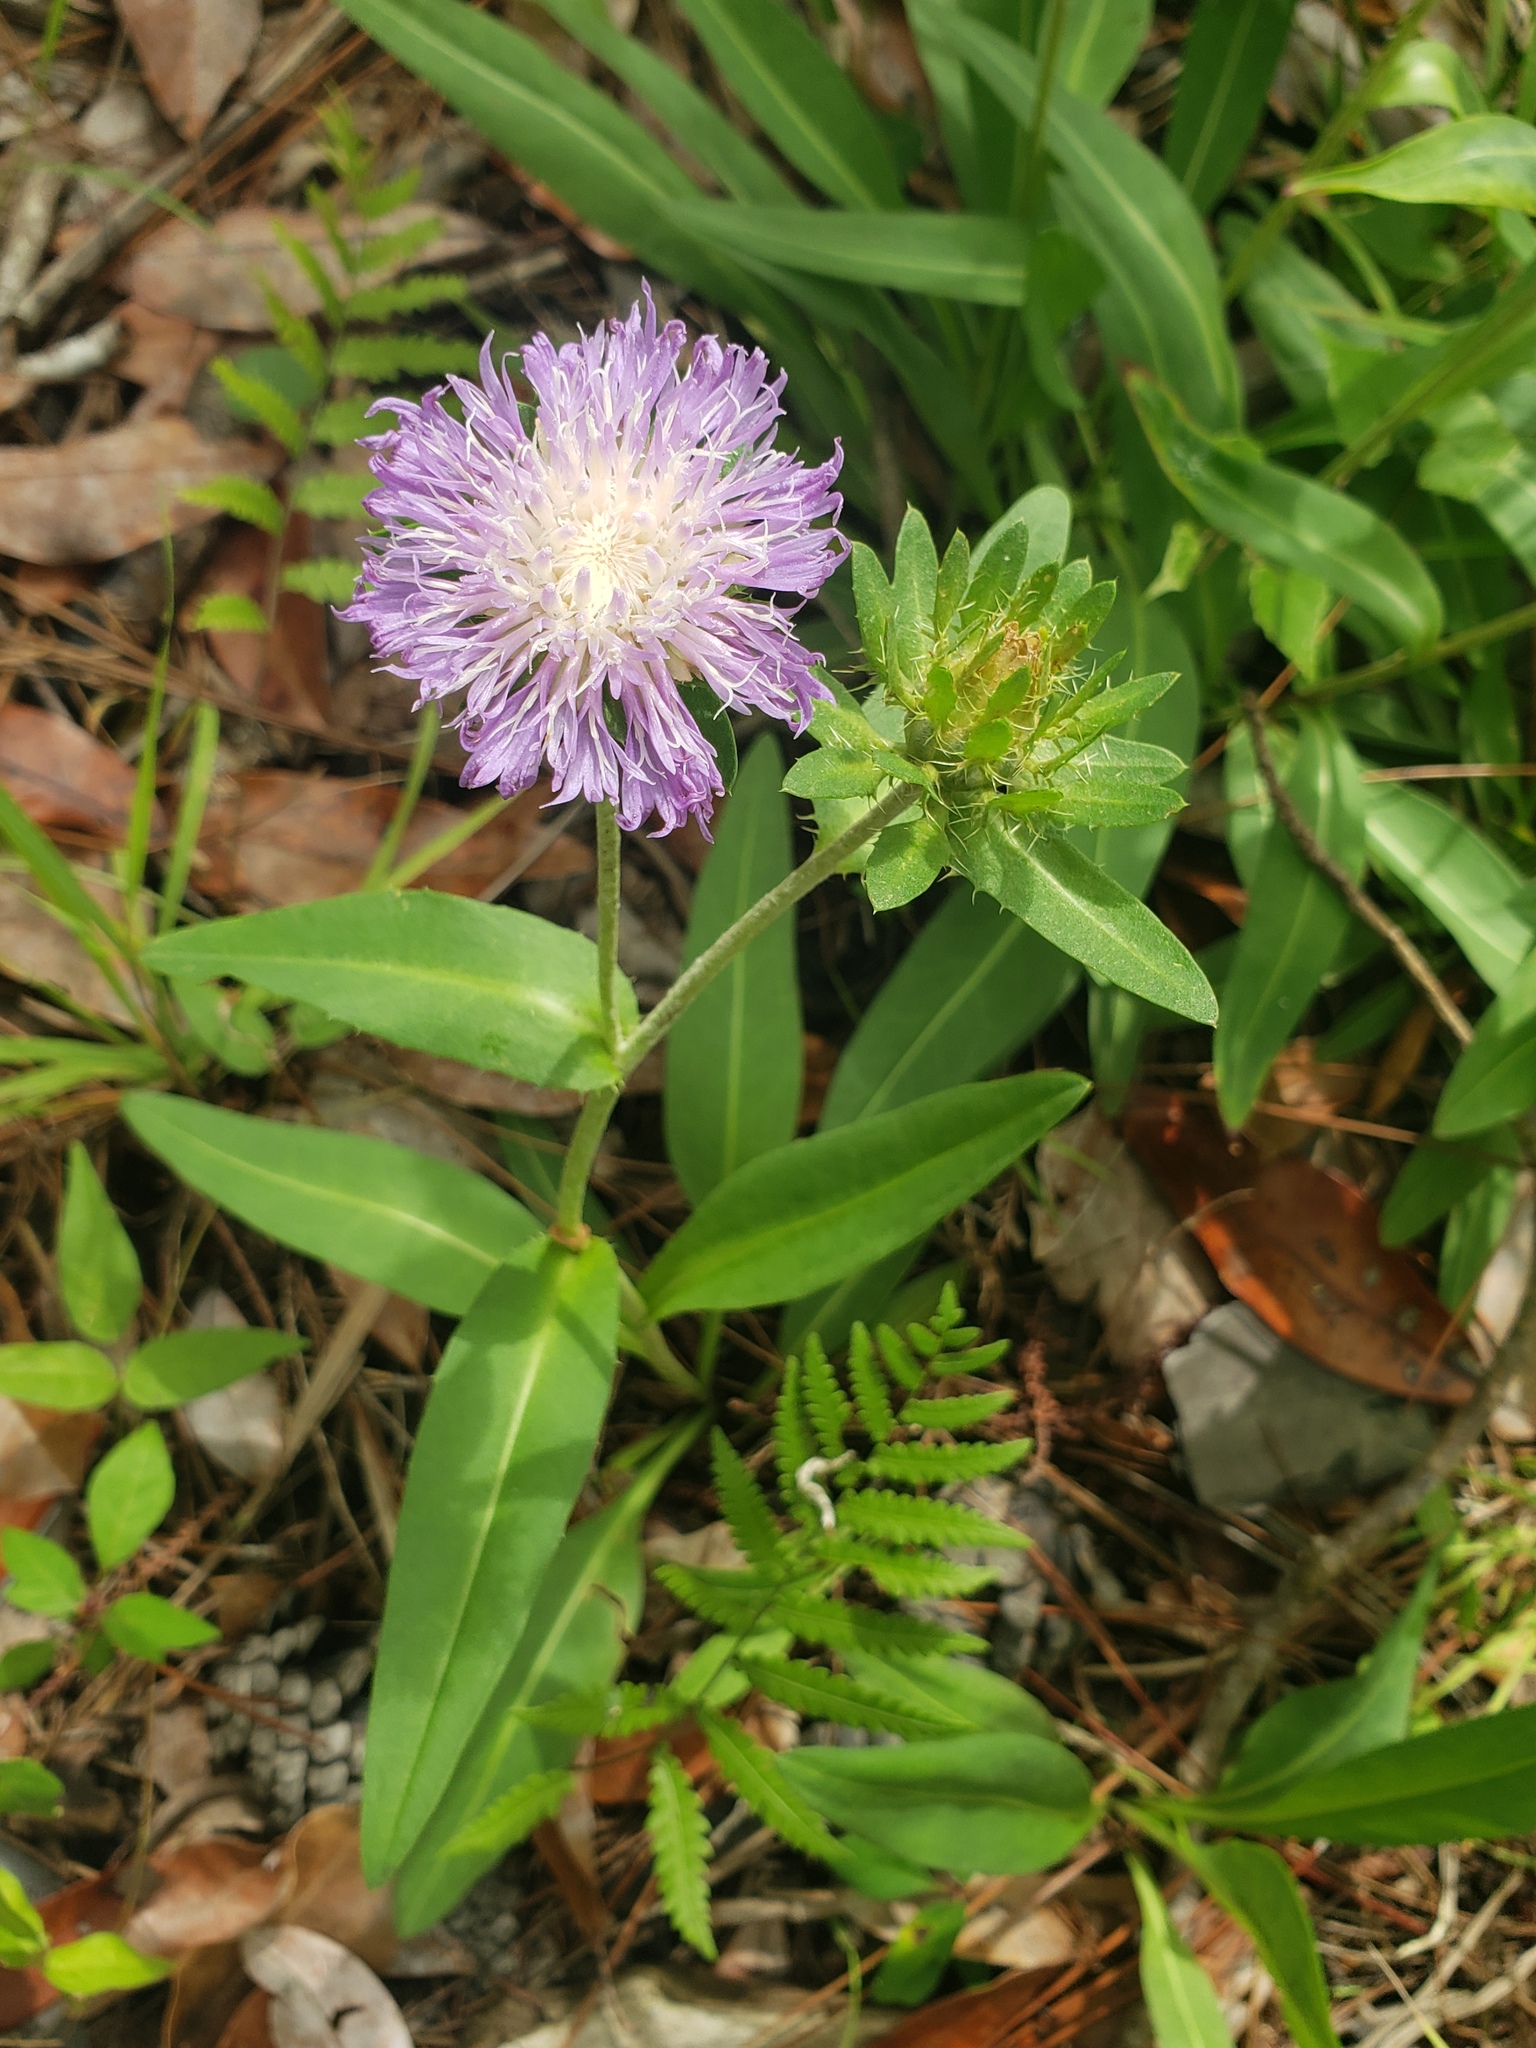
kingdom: Plantae
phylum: Tracheophyta
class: Magnoliopsida
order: Asterales
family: Asteraceae
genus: Stokesia
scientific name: Stokesia laevis
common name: Stokes'-aster
